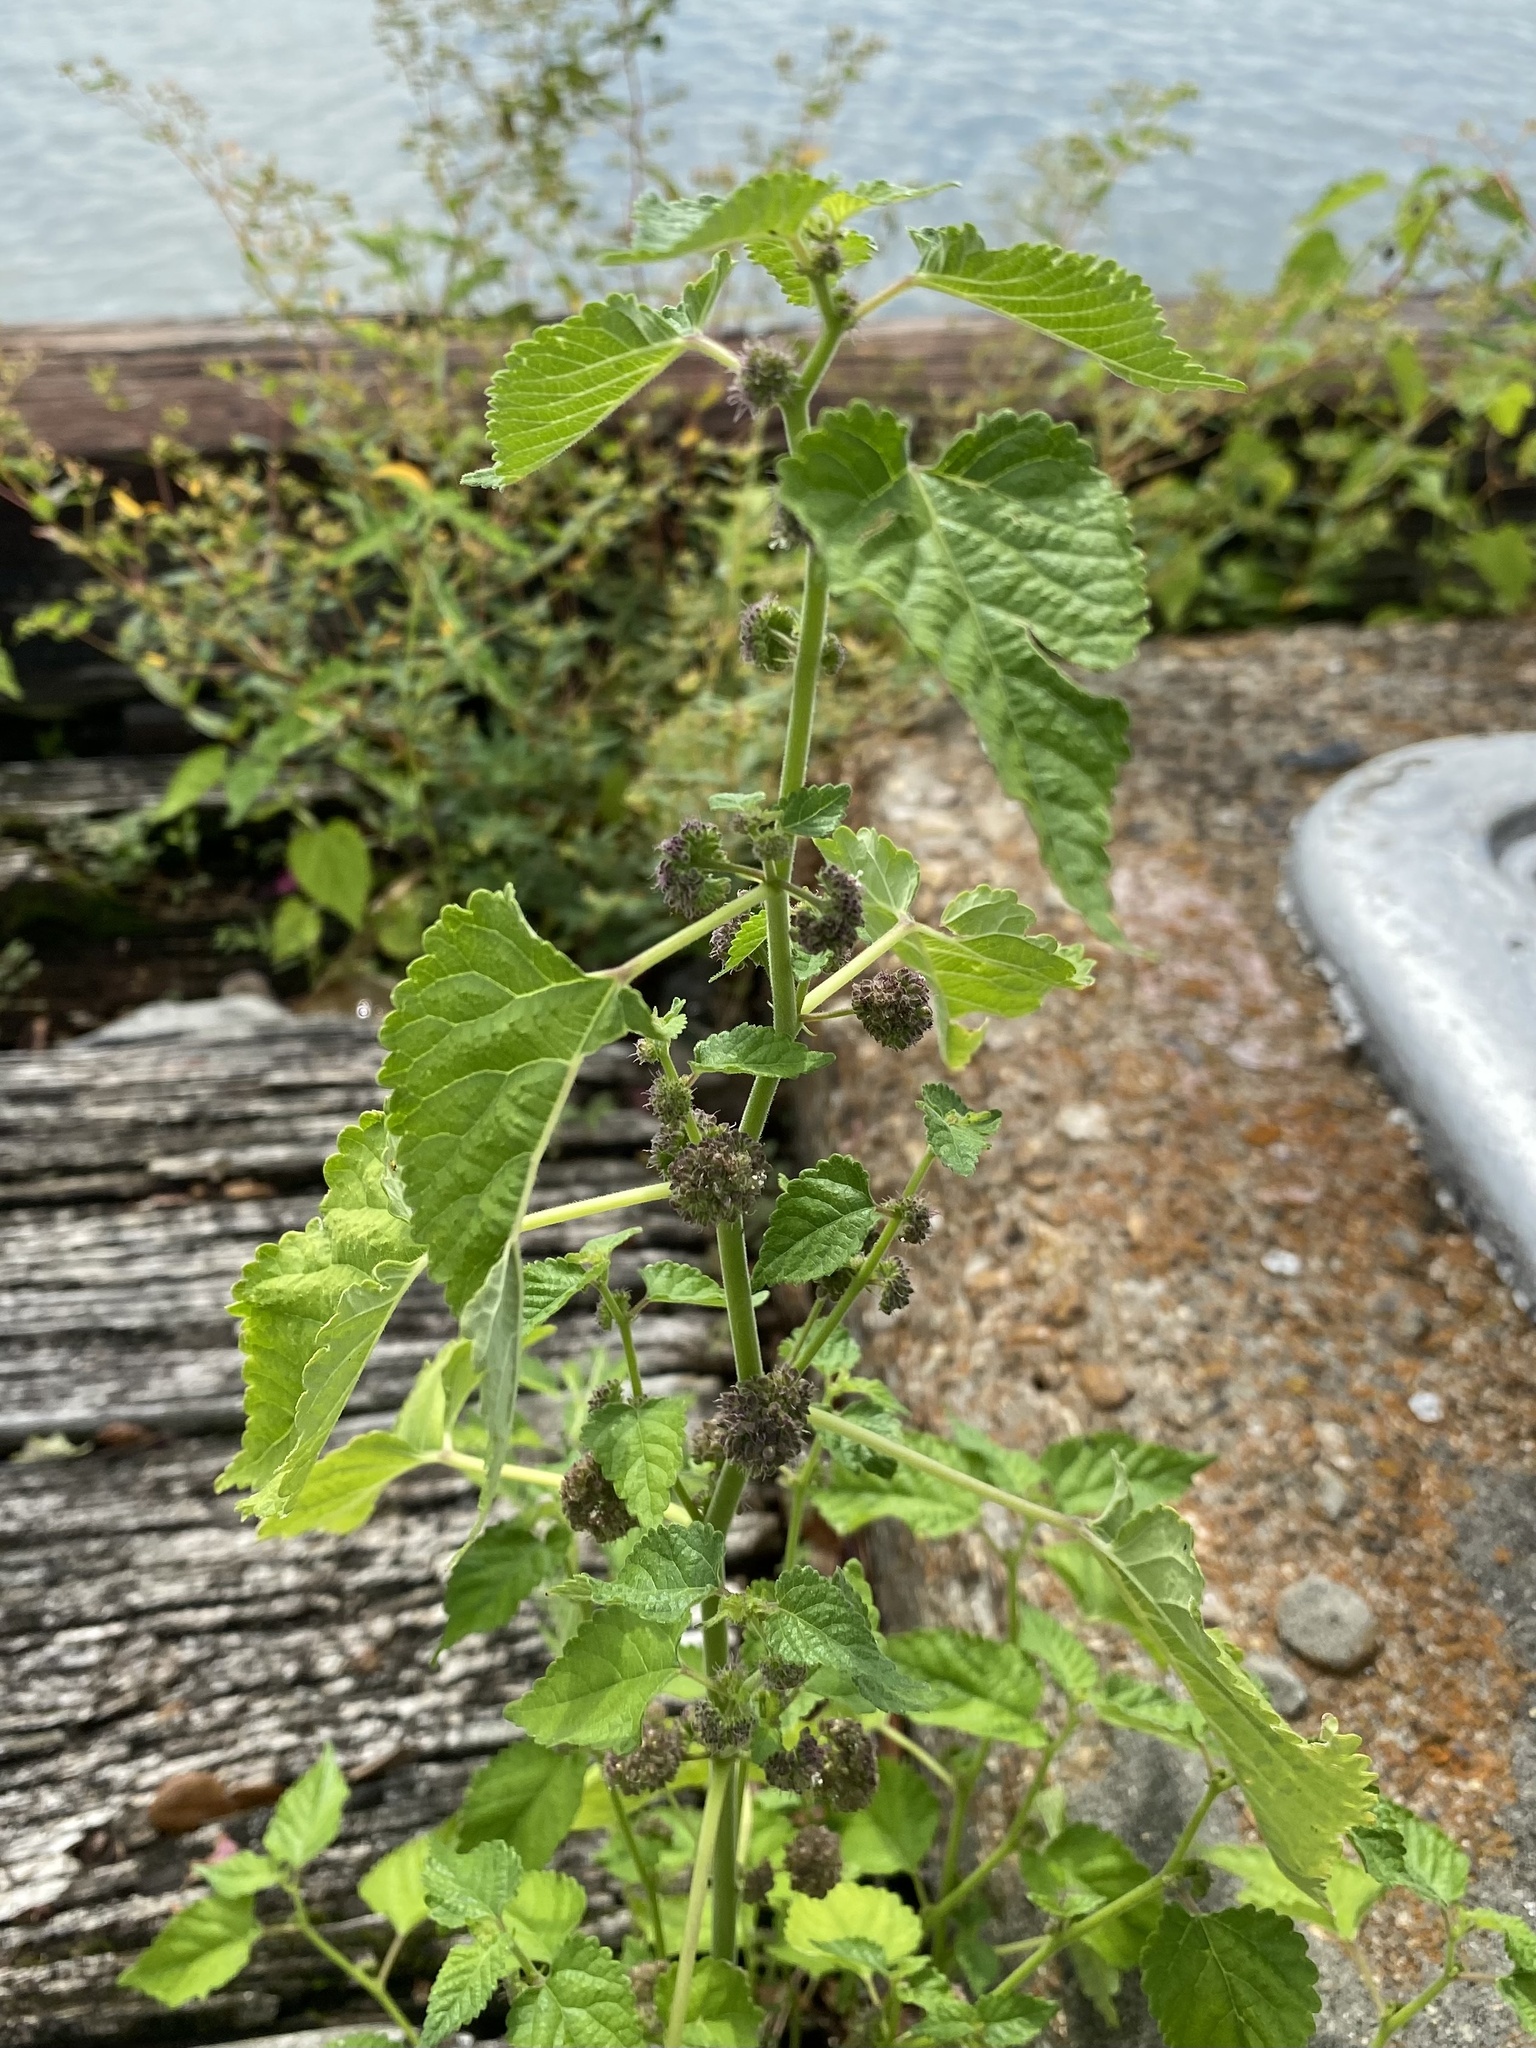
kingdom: Plantae
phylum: Tracheophyta
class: Magnoliopsida
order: Rosales
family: Moraceae
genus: Fatoua
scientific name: Fatoua villosa
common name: Hairy crabweed
